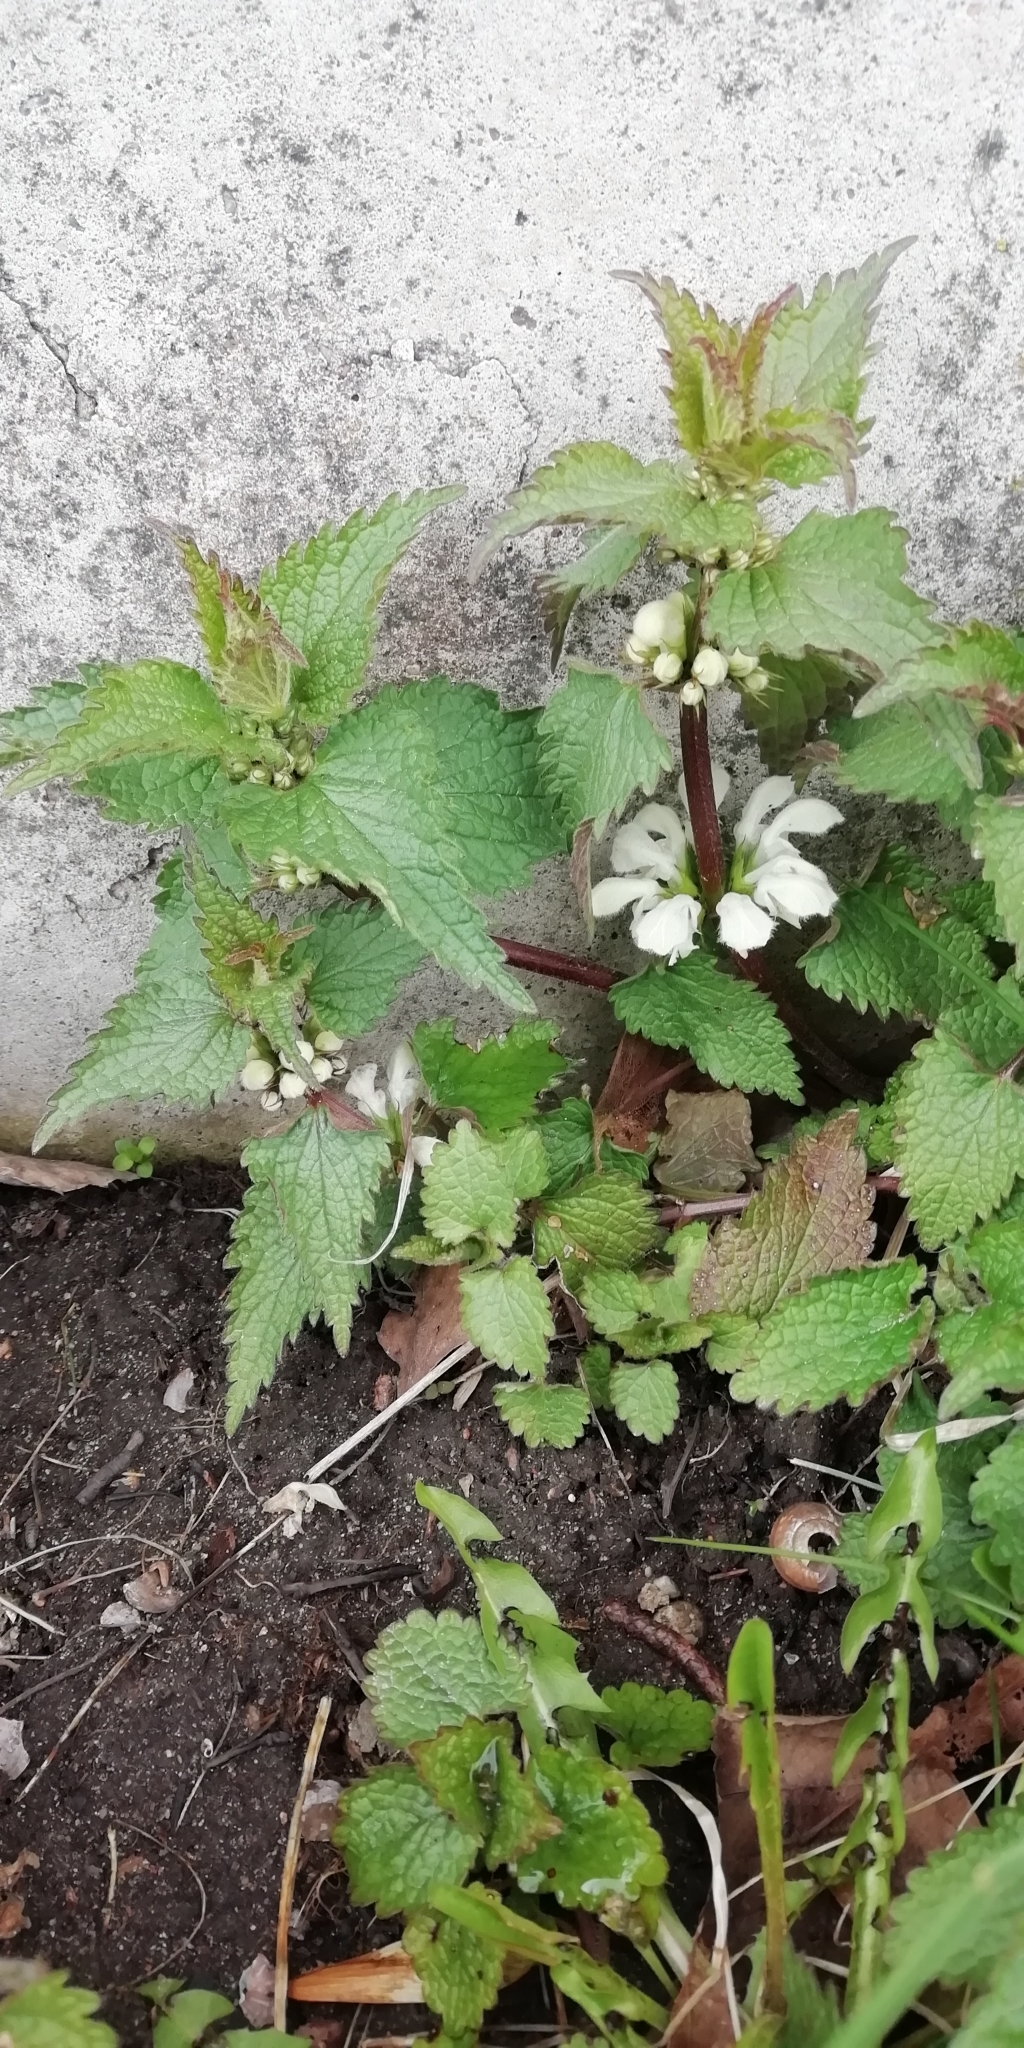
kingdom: Plantae
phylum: Tracheophyta
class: Magnoliopsida
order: Lamiales
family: Lamiaceae
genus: Lamium
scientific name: Lamium album
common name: White dead-nettle
